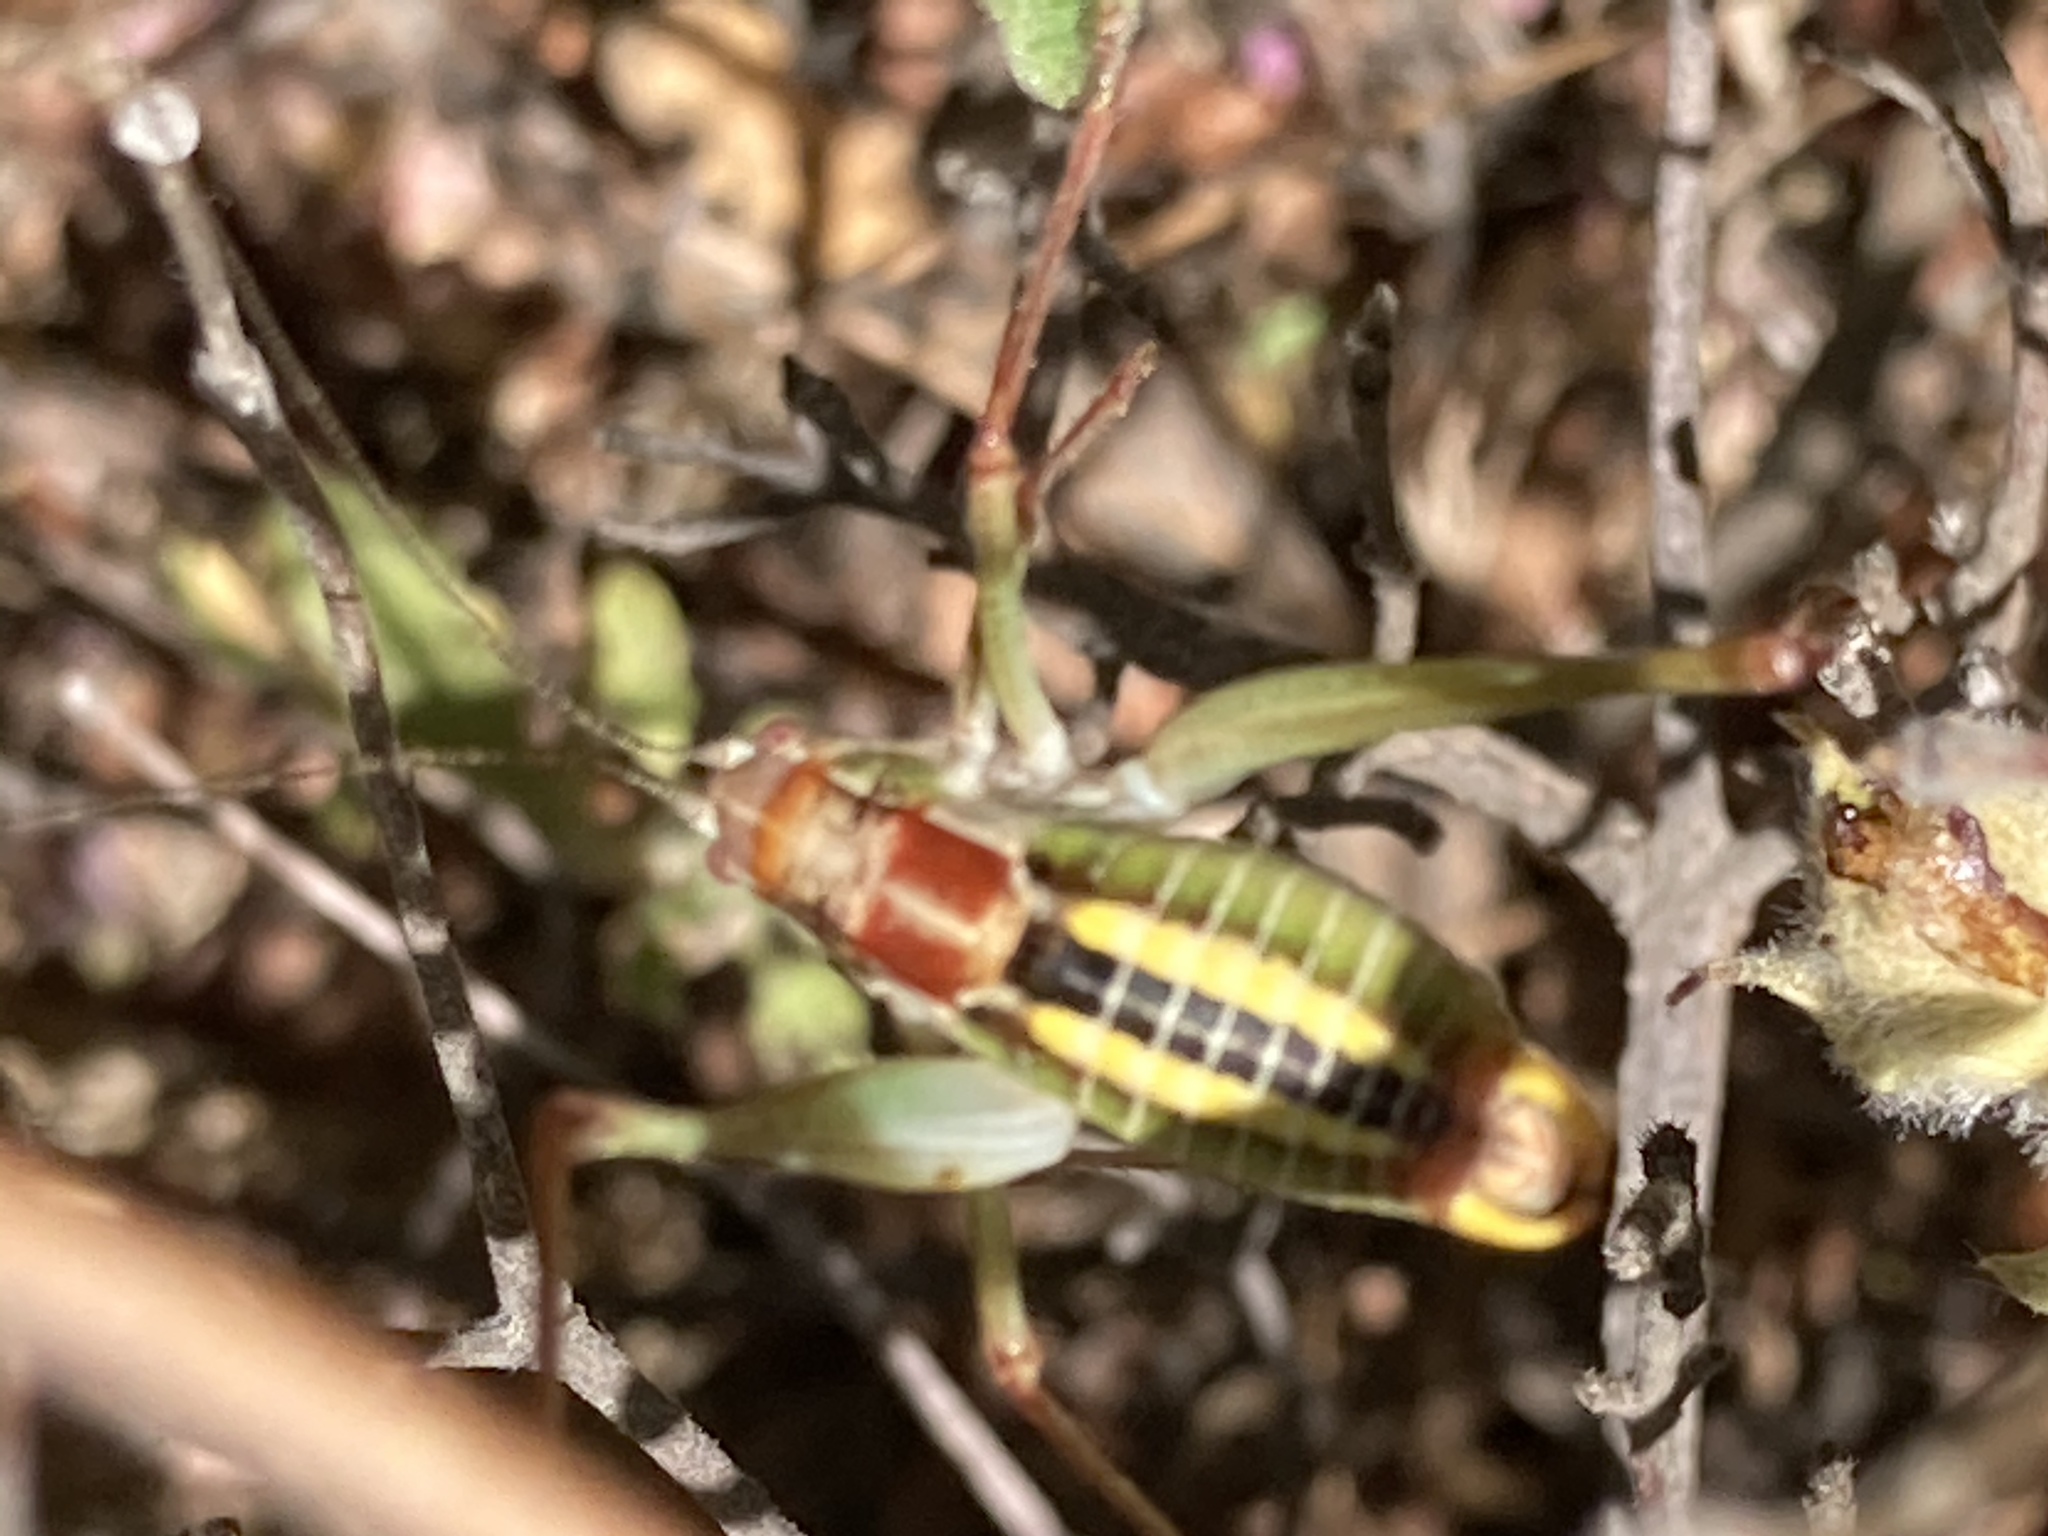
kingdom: Animalia
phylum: Arthropoda
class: Insecta
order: Orthoptera
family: Tettigoniidae
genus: Poecilimon
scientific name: Poecilimon mytilenensis
